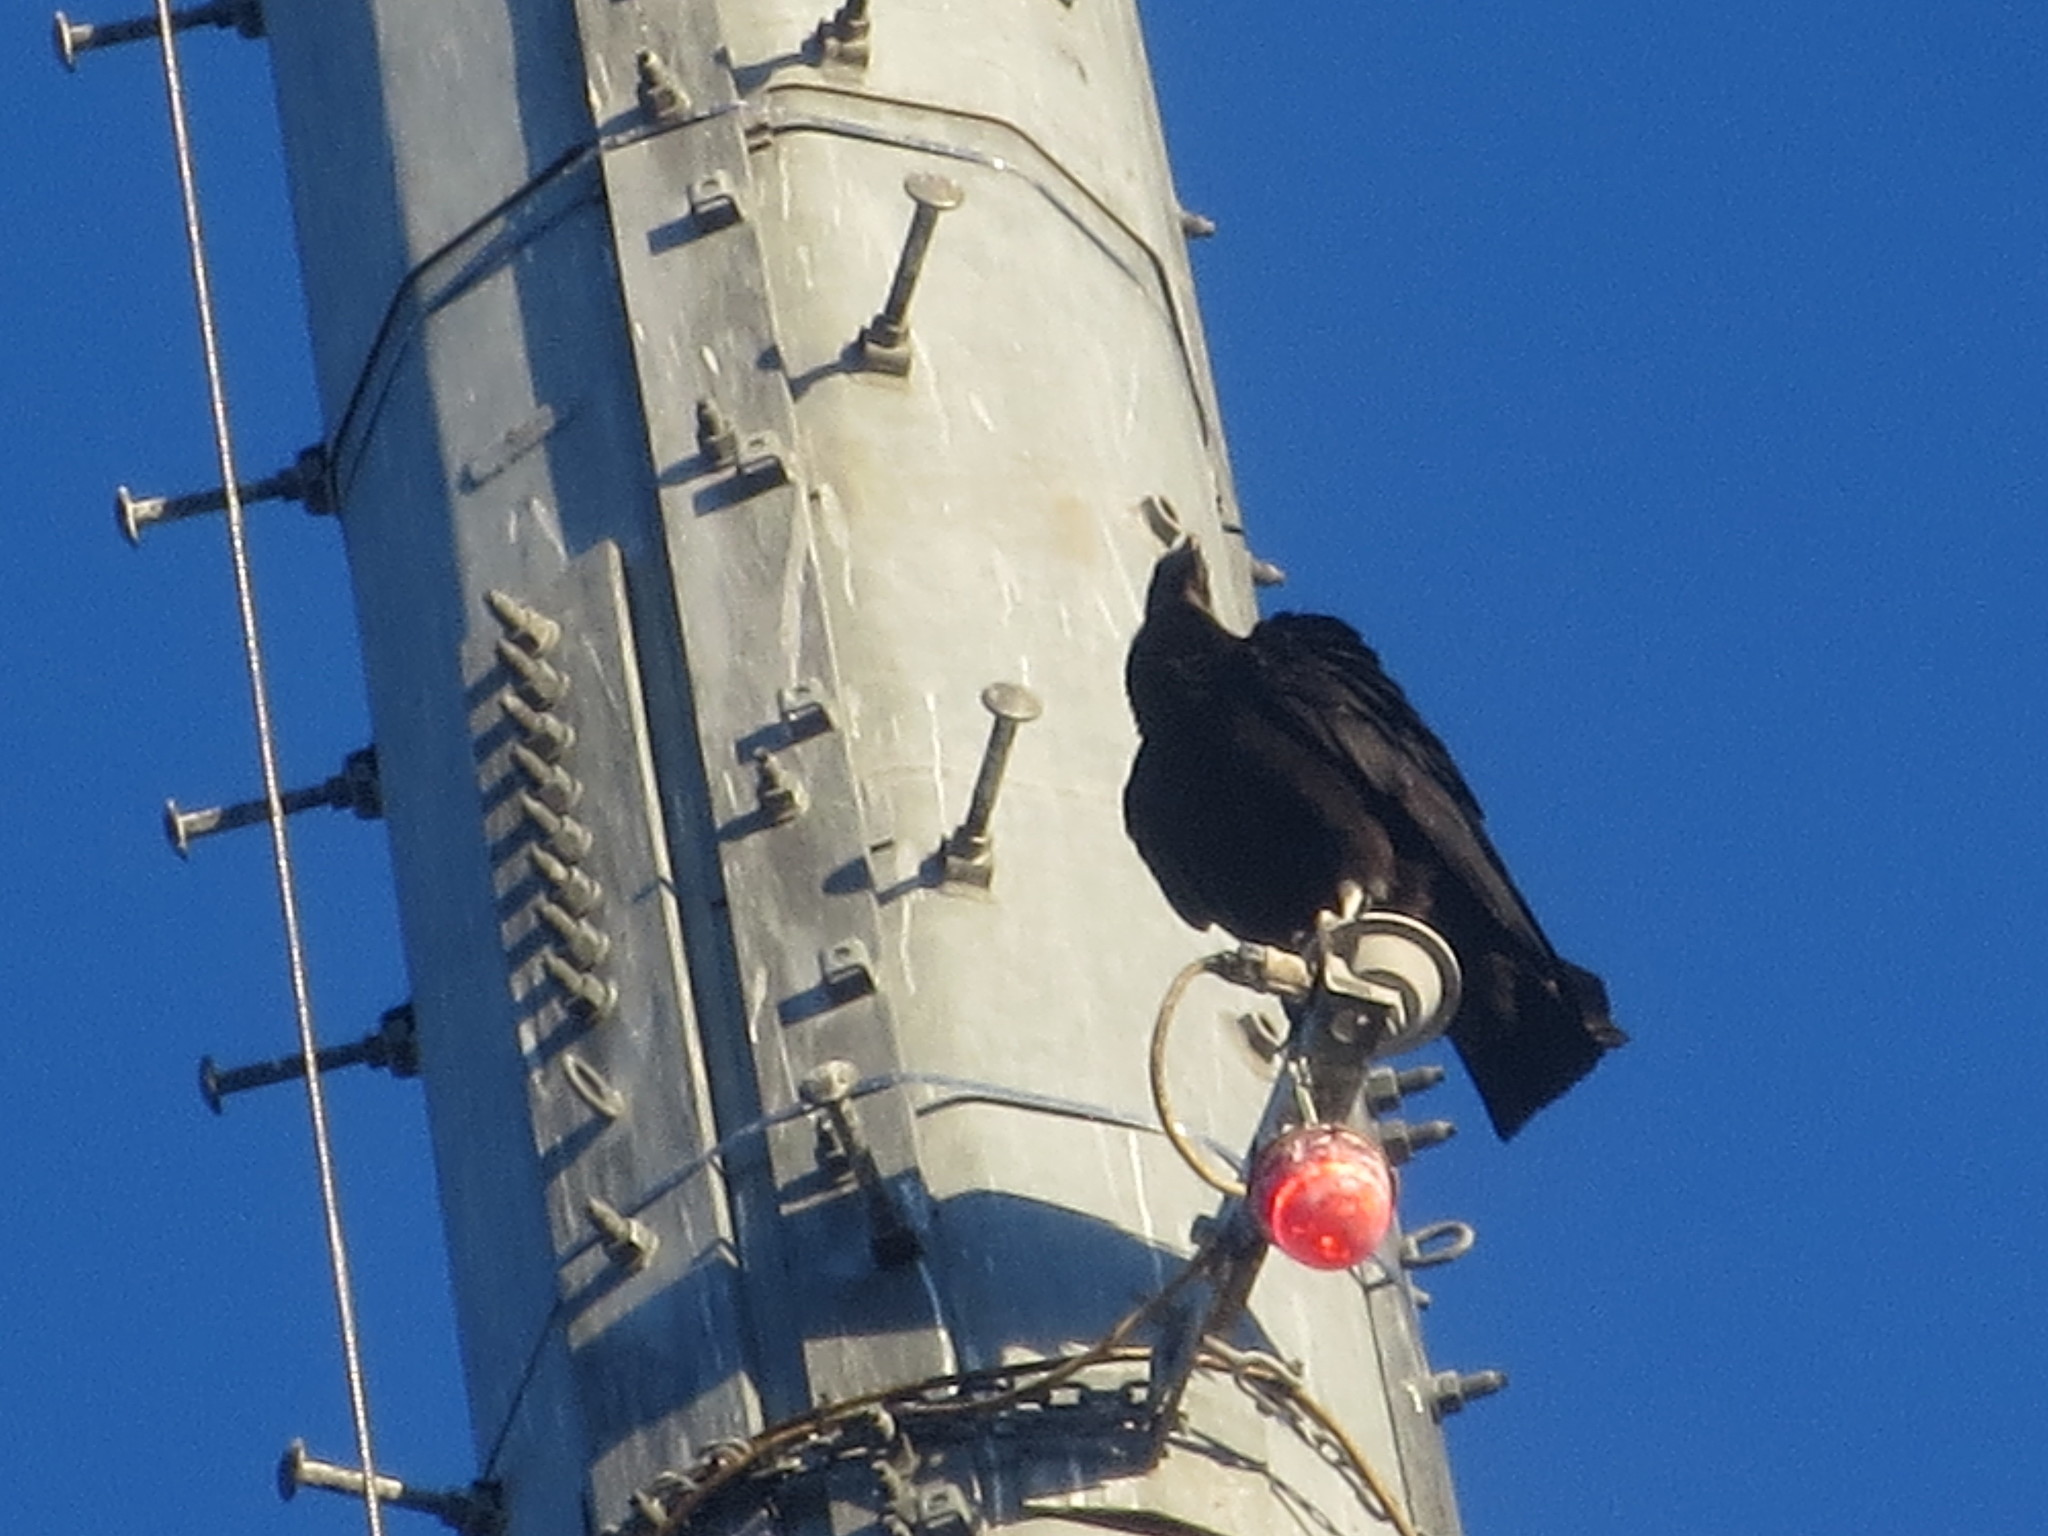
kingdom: Animalia
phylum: Chordata
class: Aves
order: Accipitriformes
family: Cathartidae
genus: Coragyps
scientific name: Coragyps atratus
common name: Black vulture
